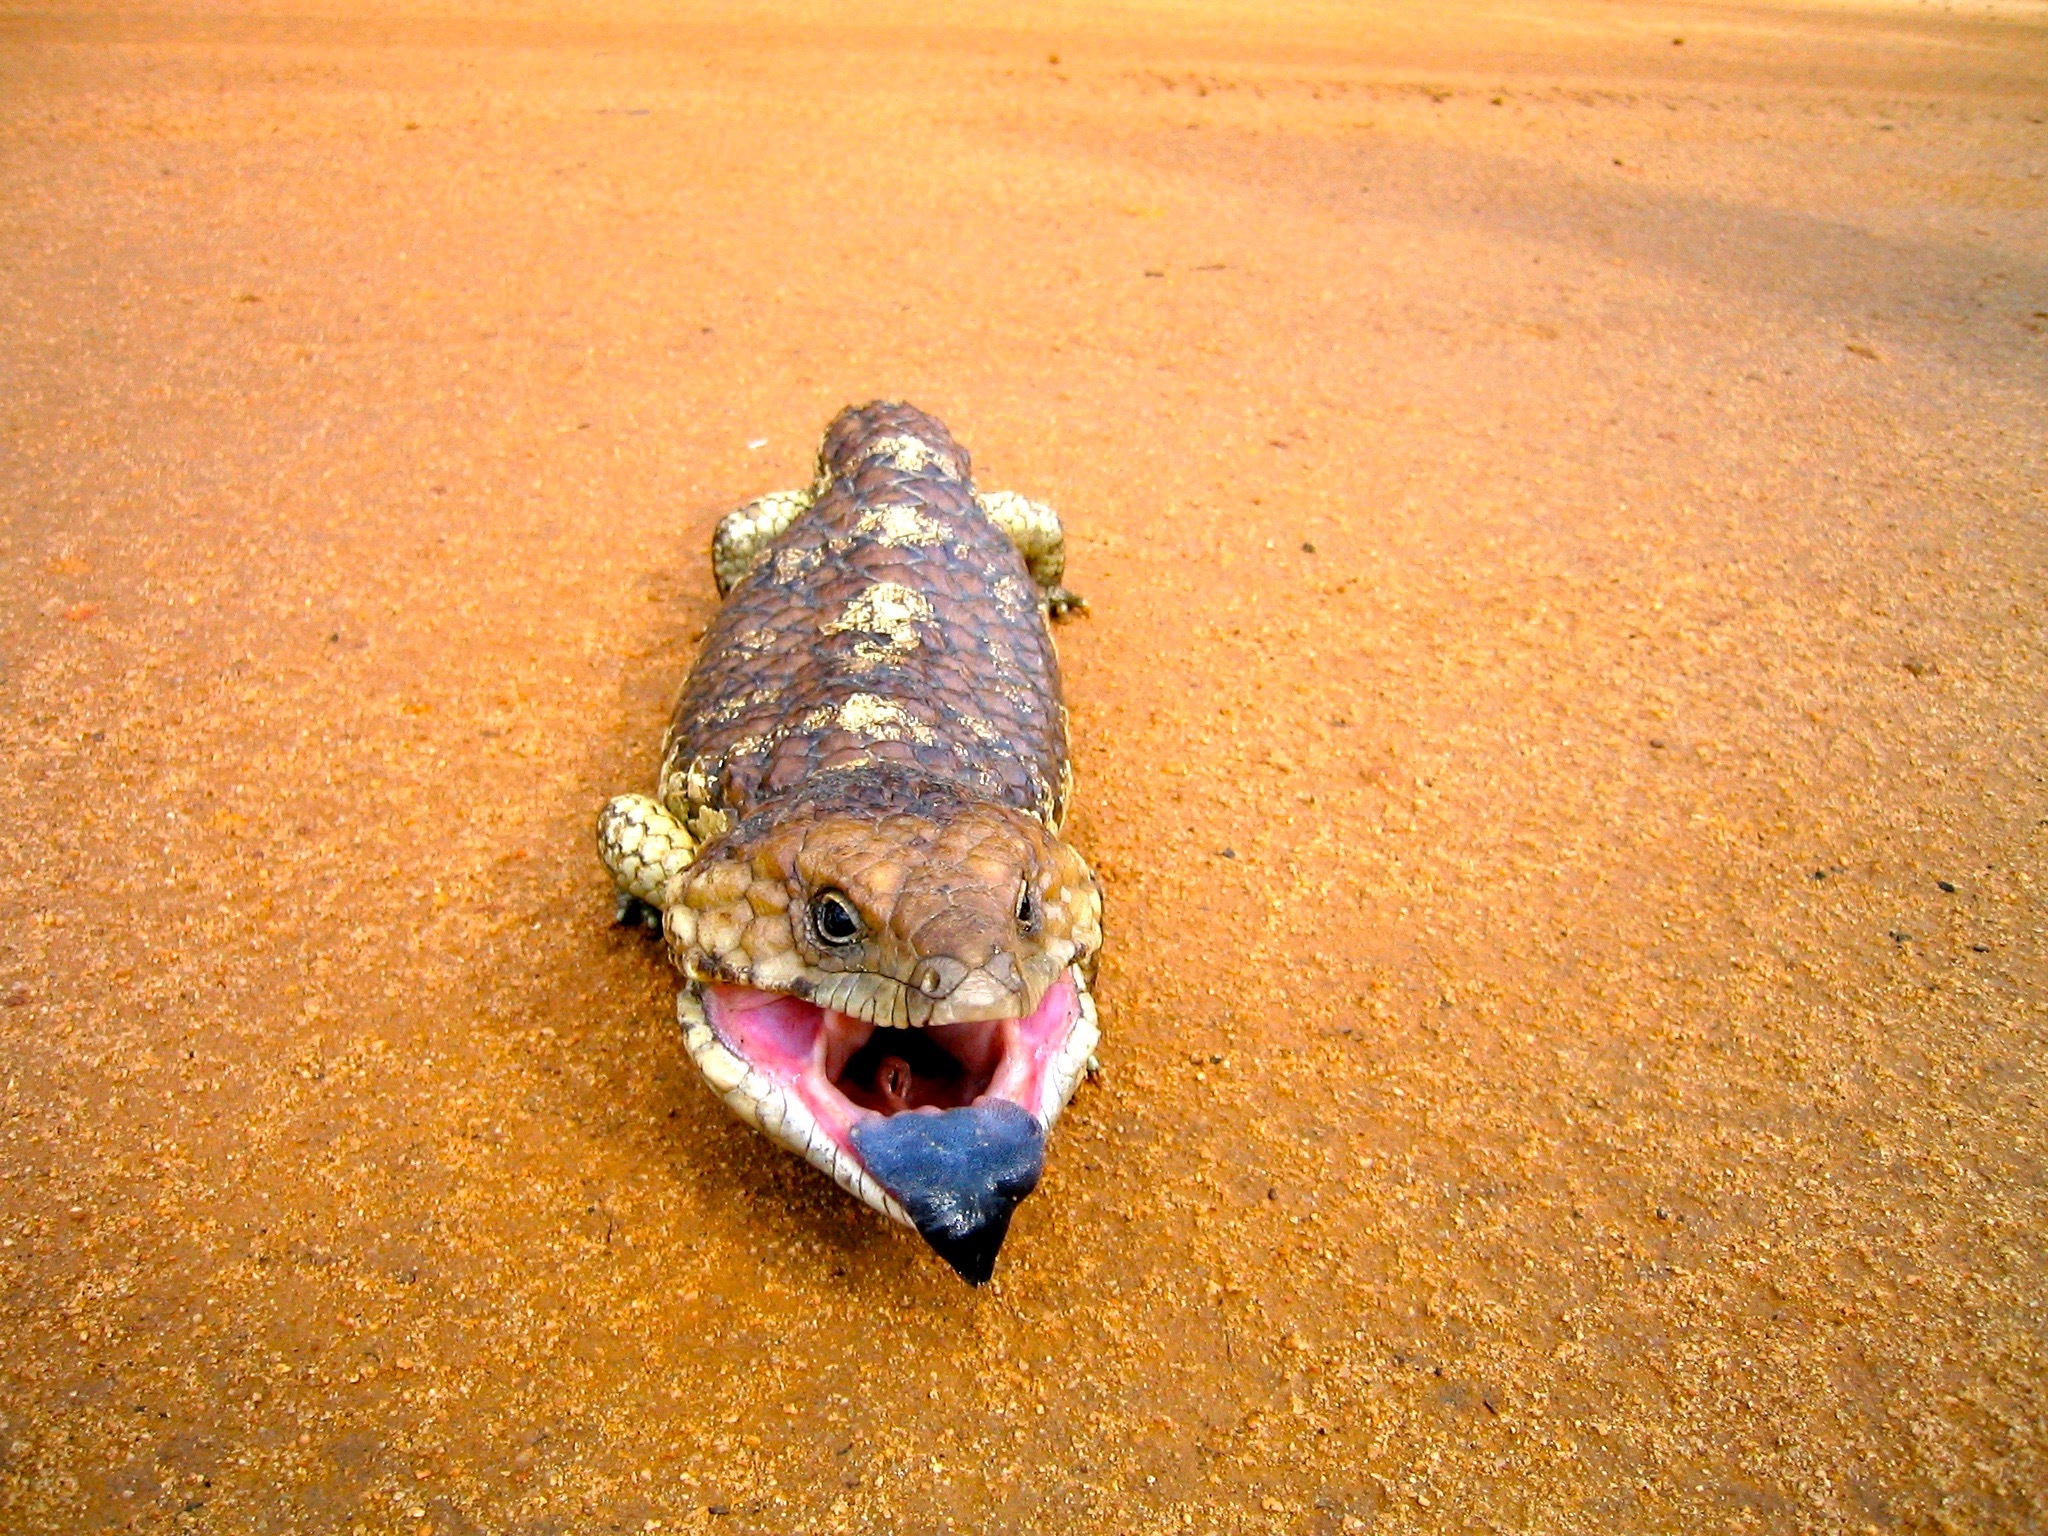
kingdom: Animalia
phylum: Chordata
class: Squamata
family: Scincidae
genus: Tiliqua
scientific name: Tiliqua rugosa
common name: Pinecone lizard
